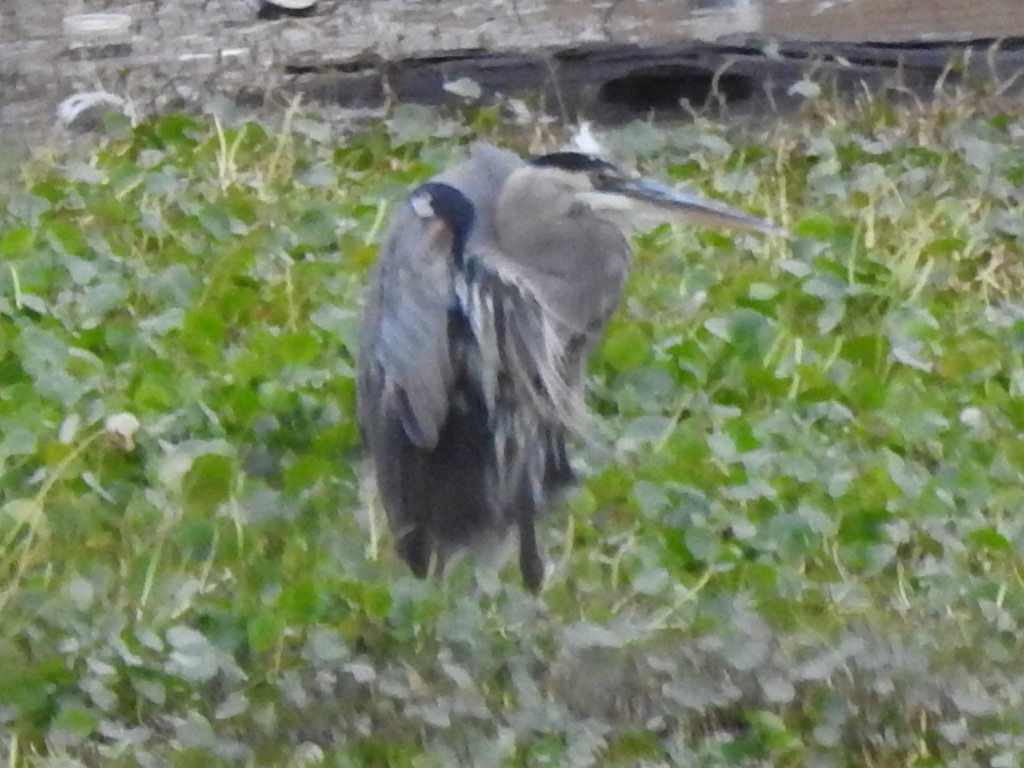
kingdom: Animalia
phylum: Chordata
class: Aves
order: Pelecaniformes
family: Ardeidae
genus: Ardea
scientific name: Ardea herodias
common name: Great blue heron
